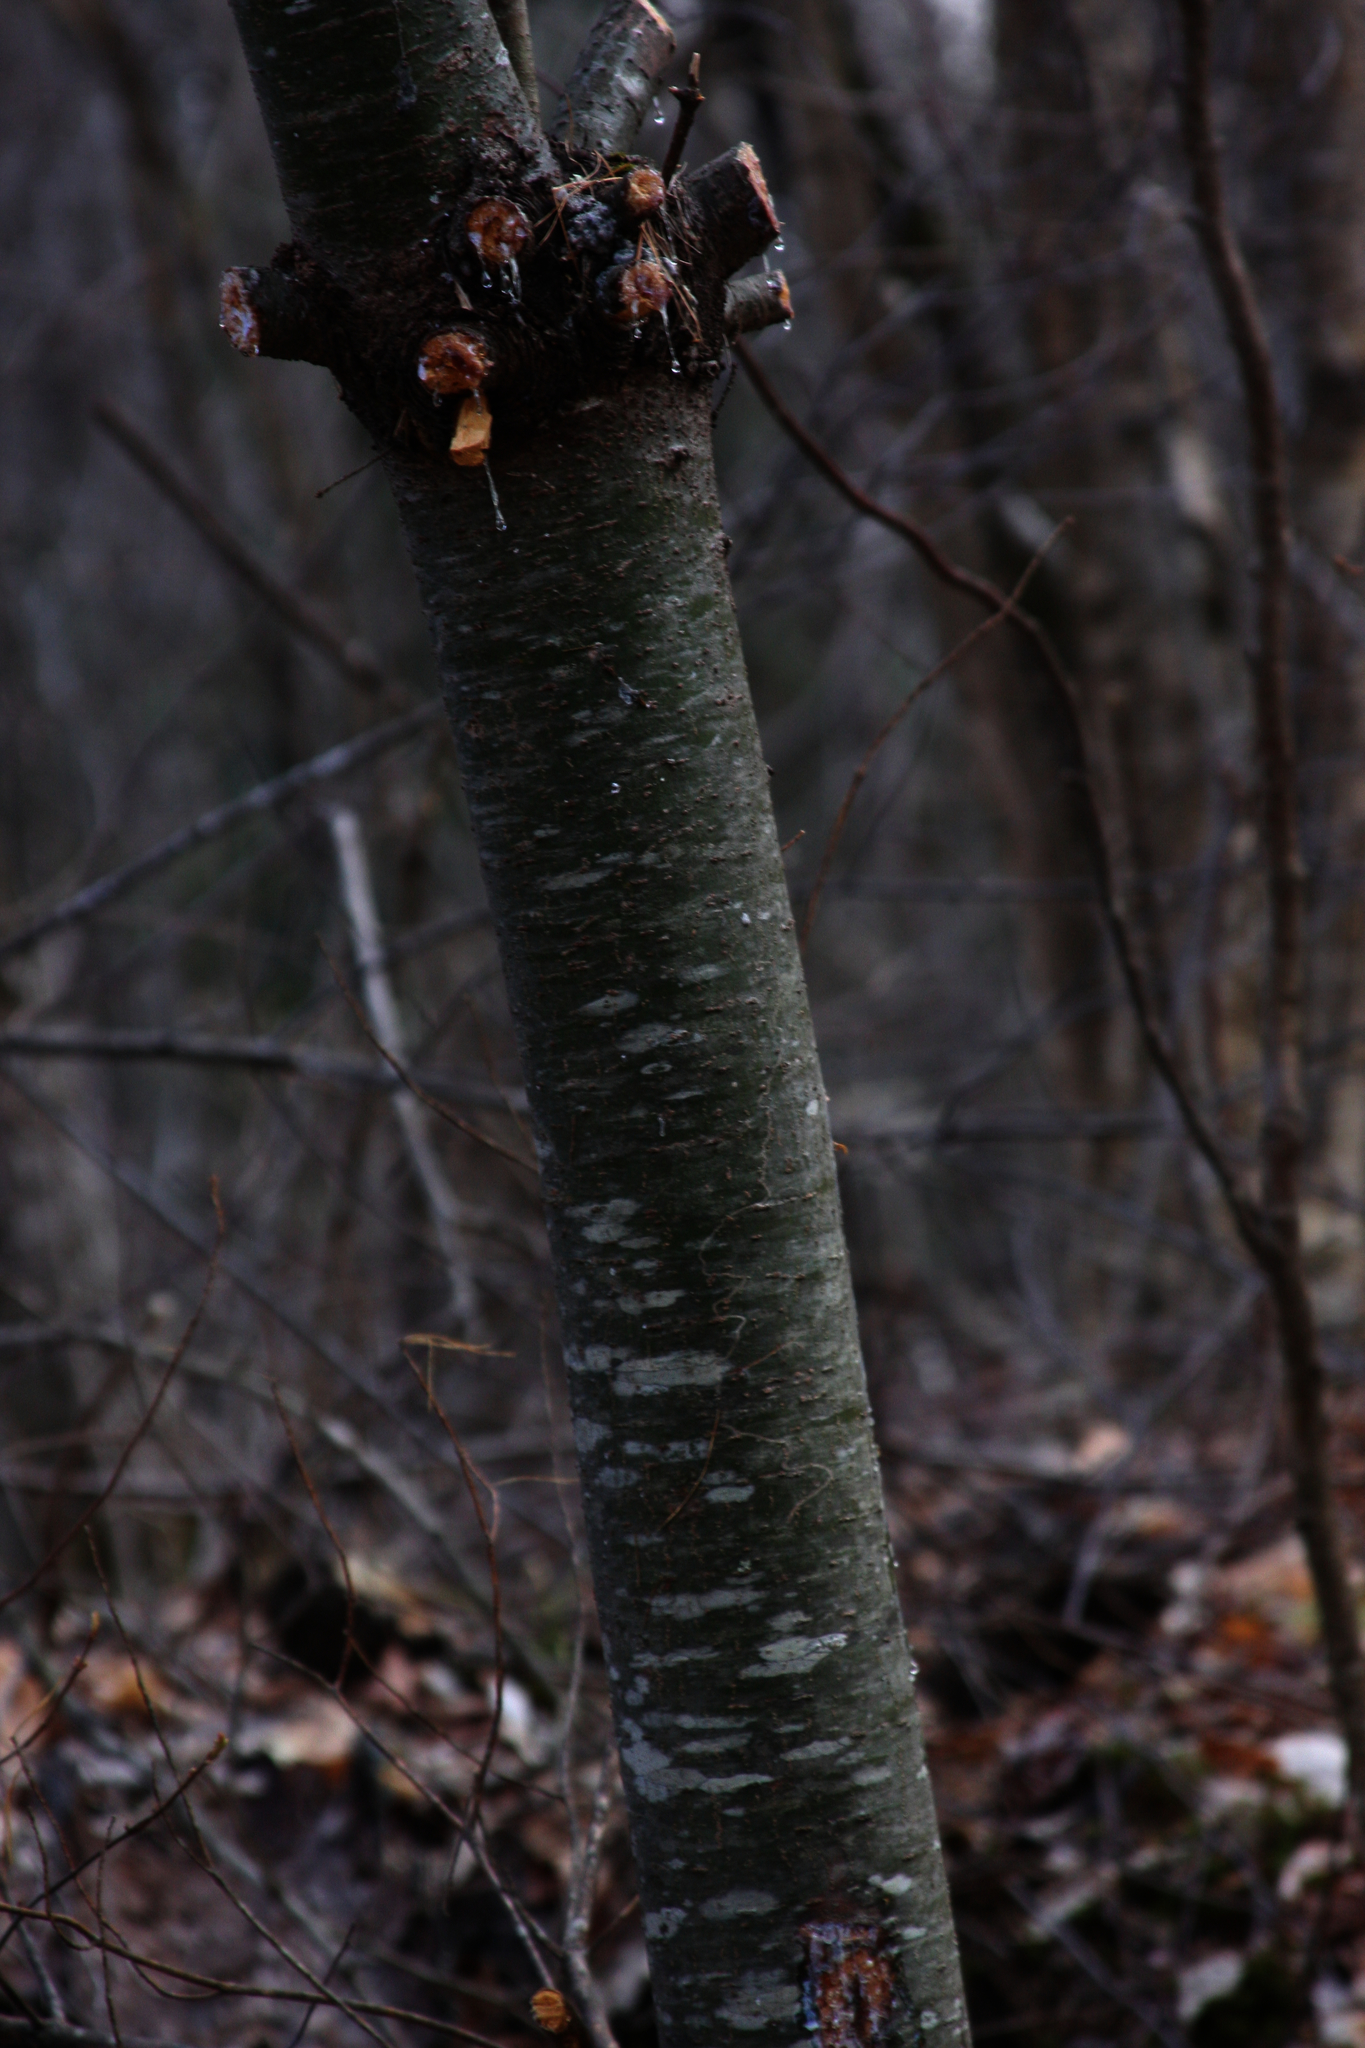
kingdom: Plantae
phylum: Tracheophyta
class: Pinopsida
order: Pinales
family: Pinaceae
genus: Pinus
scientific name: Pinus strobus
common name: Weymouth pine
